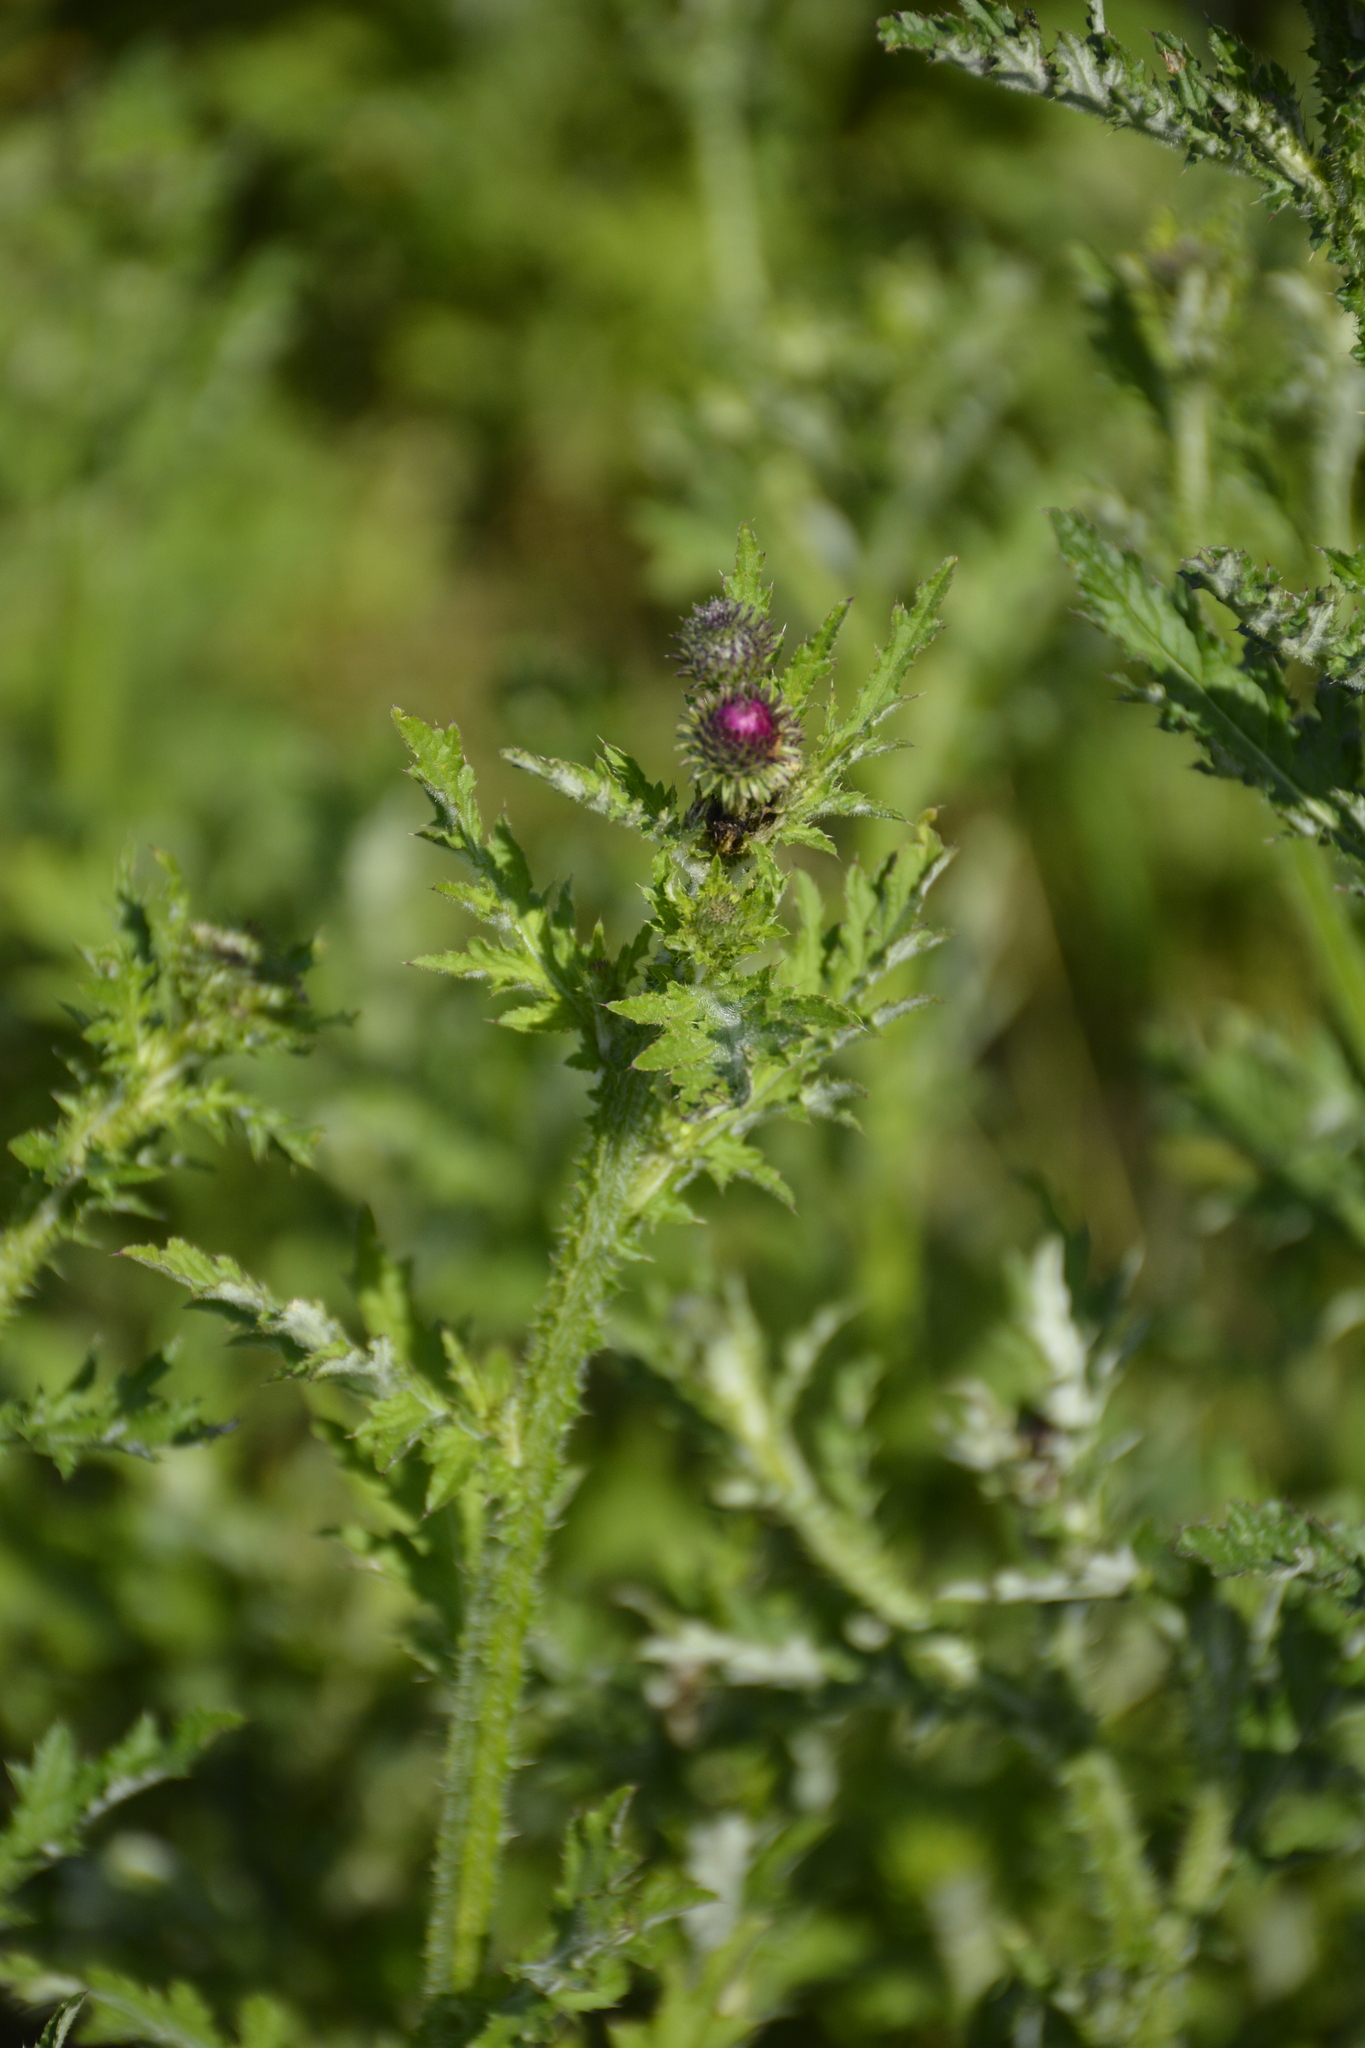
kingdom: Plantae
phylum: Tracheophyta
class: Magnoliopsida
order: Asterales
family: Asteraceae
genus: Carduus
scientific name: Carduus crispus
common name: Welted thistle
